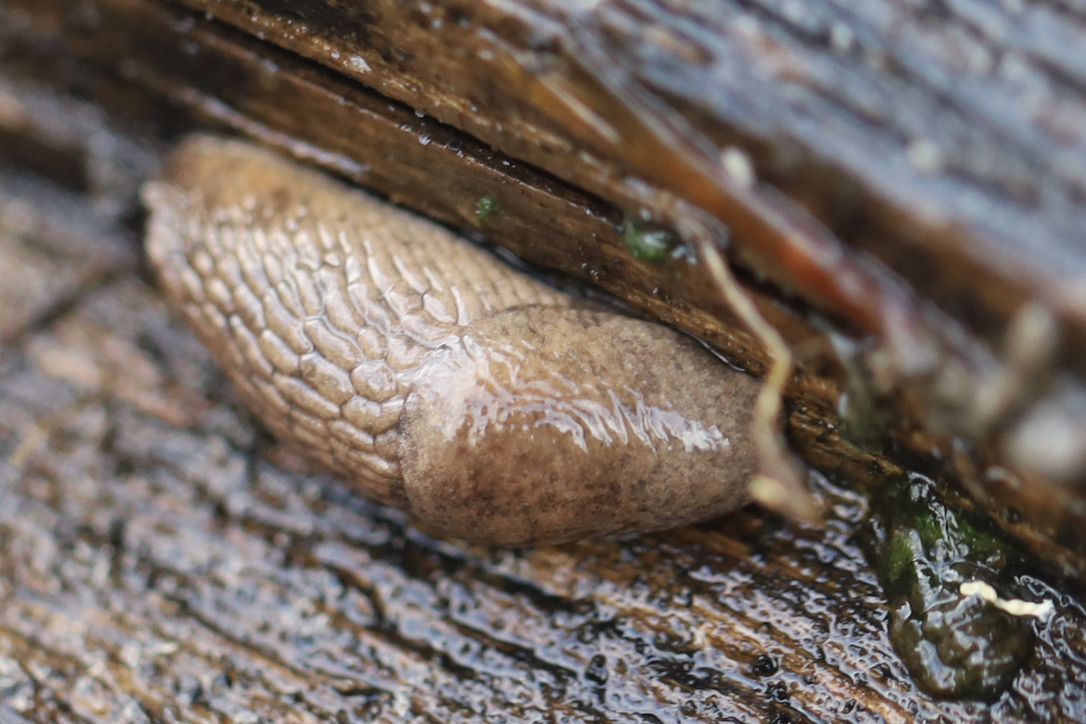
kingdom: Animalia
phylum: Mollusca
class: Gastropoda
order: Stylommatophora
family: Agriolimacidae
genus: Deroceras
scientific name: Deroceras reticulatum
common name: Gray field slug
